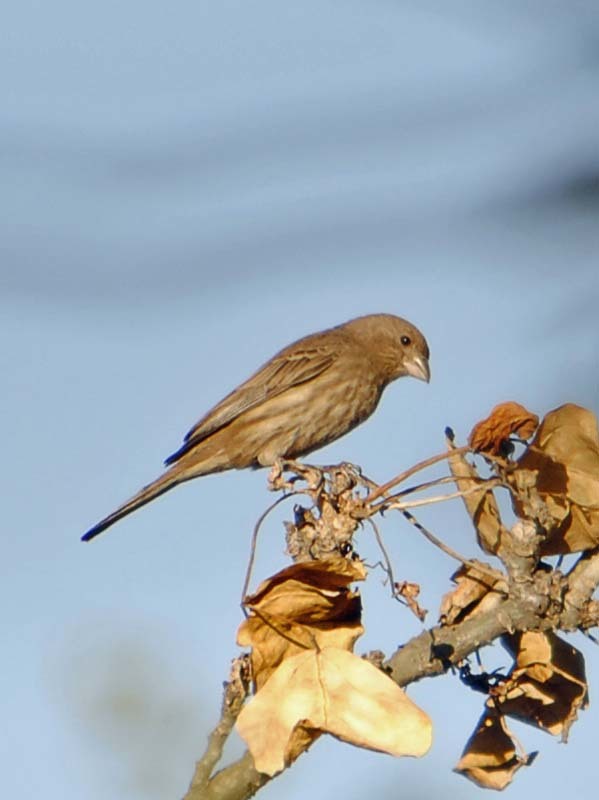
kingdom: Animalia
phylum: Chordata
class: Aves
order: Passeriformes
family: Fringillidae
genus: Haemorhous
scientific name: Haemorhous mexicanus
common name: House finch
